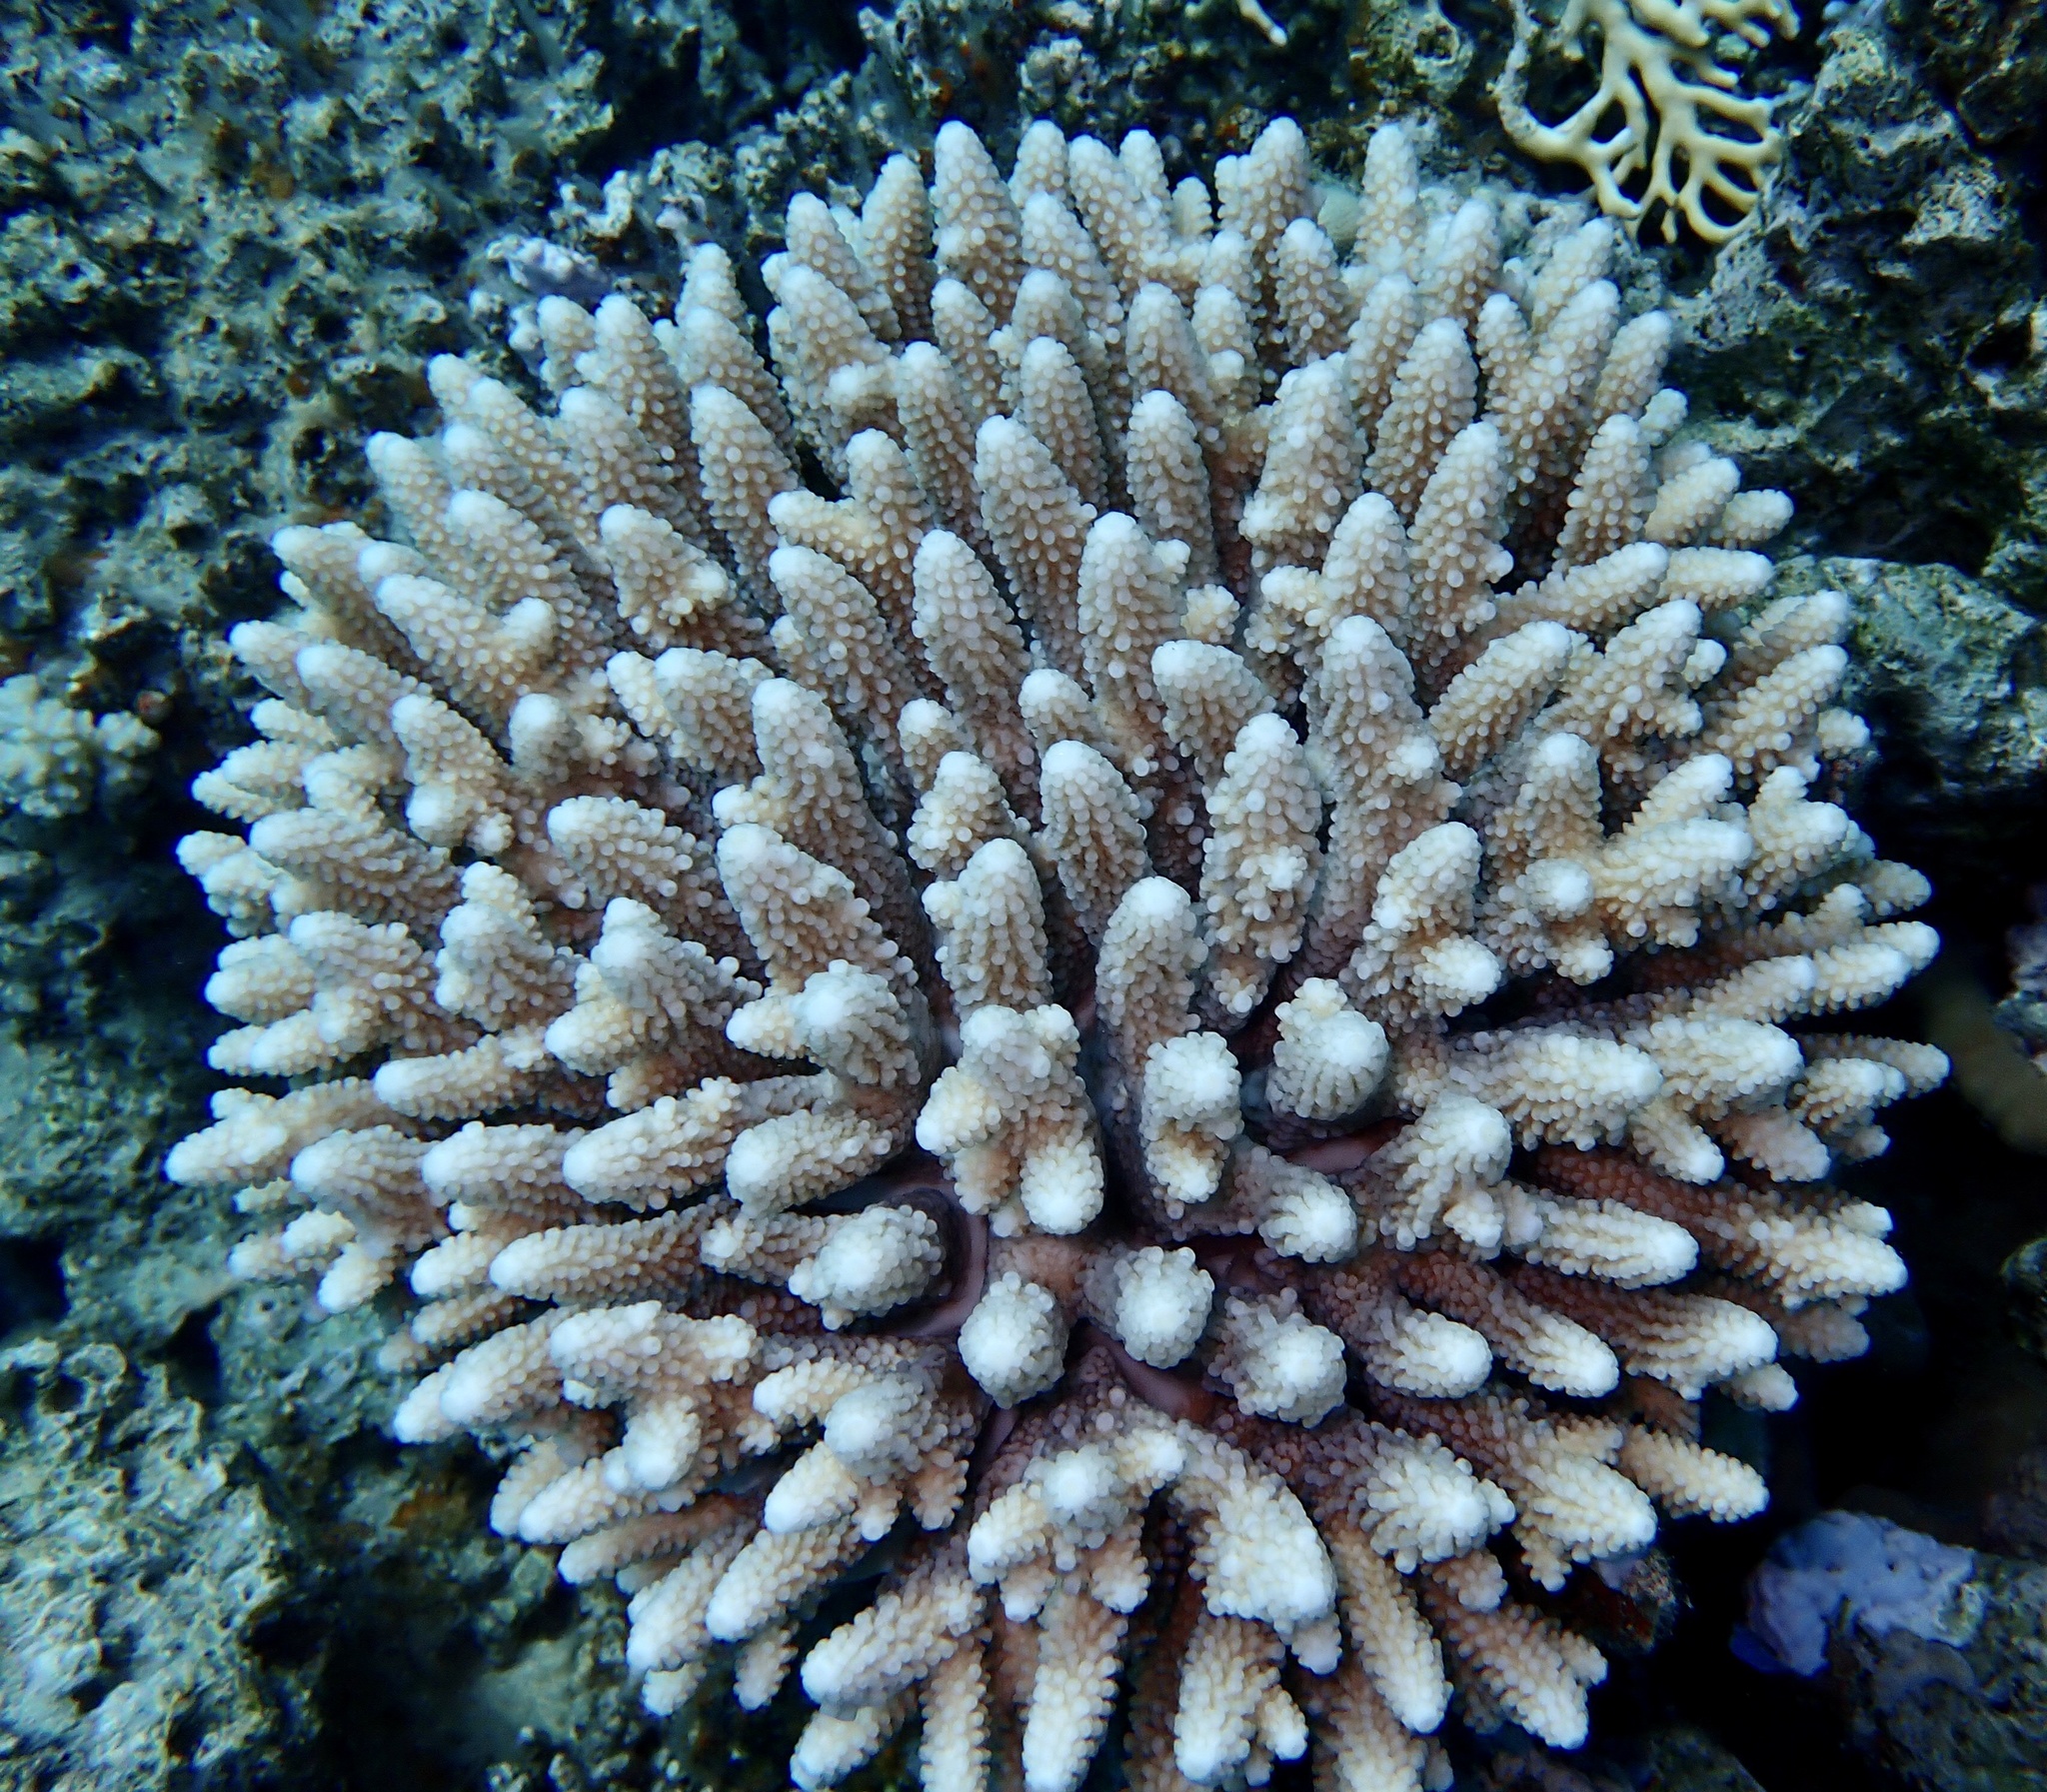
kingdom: Animalia
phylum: Cnidaria
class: Anthozoa
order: Scleractinia
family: Acroporidae
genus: Acropora
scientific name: Acropora gemmifera
